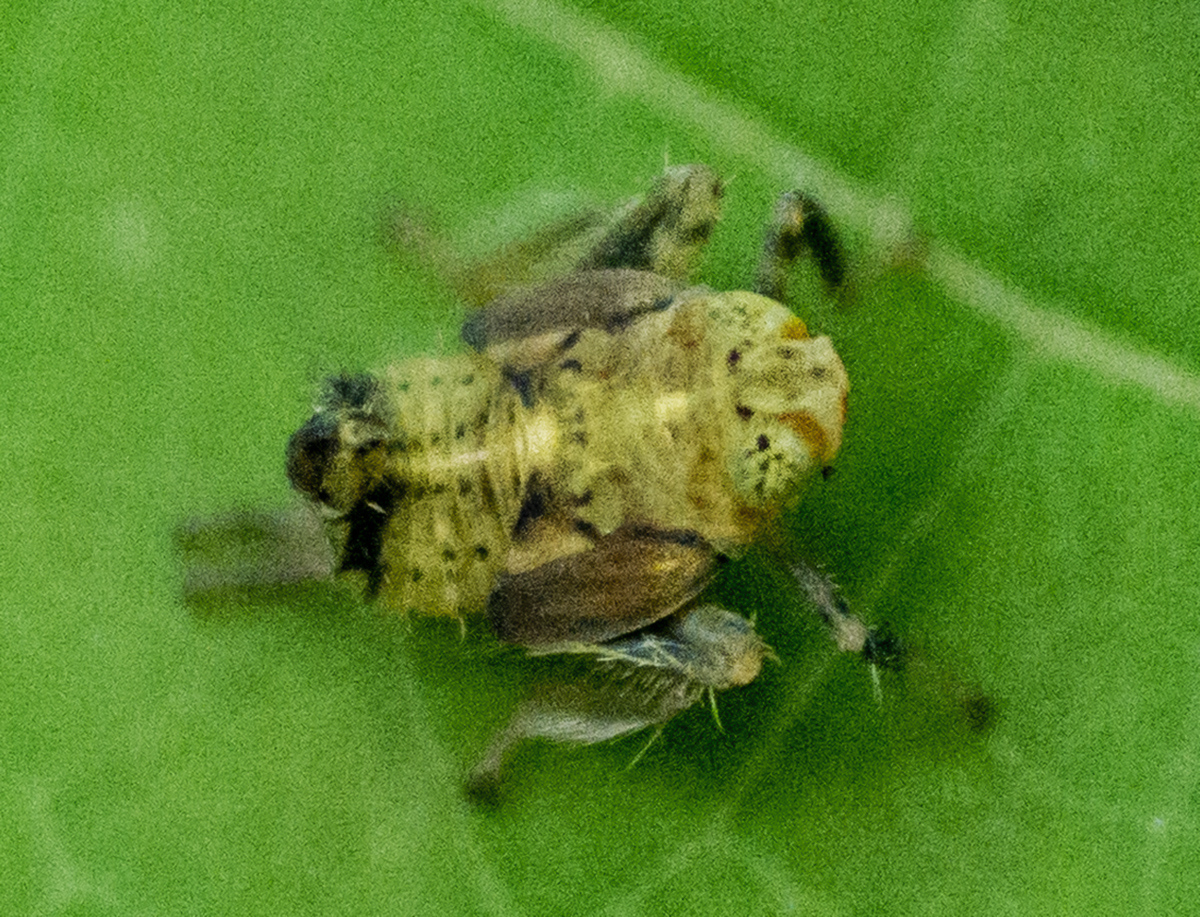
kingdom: Animalia
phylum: Arthropoda
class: Insecta
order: Hemiptera
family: Cicadellidae
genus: Jikradia
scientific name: Jikradia olitoria
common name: Coppery leafhopper
